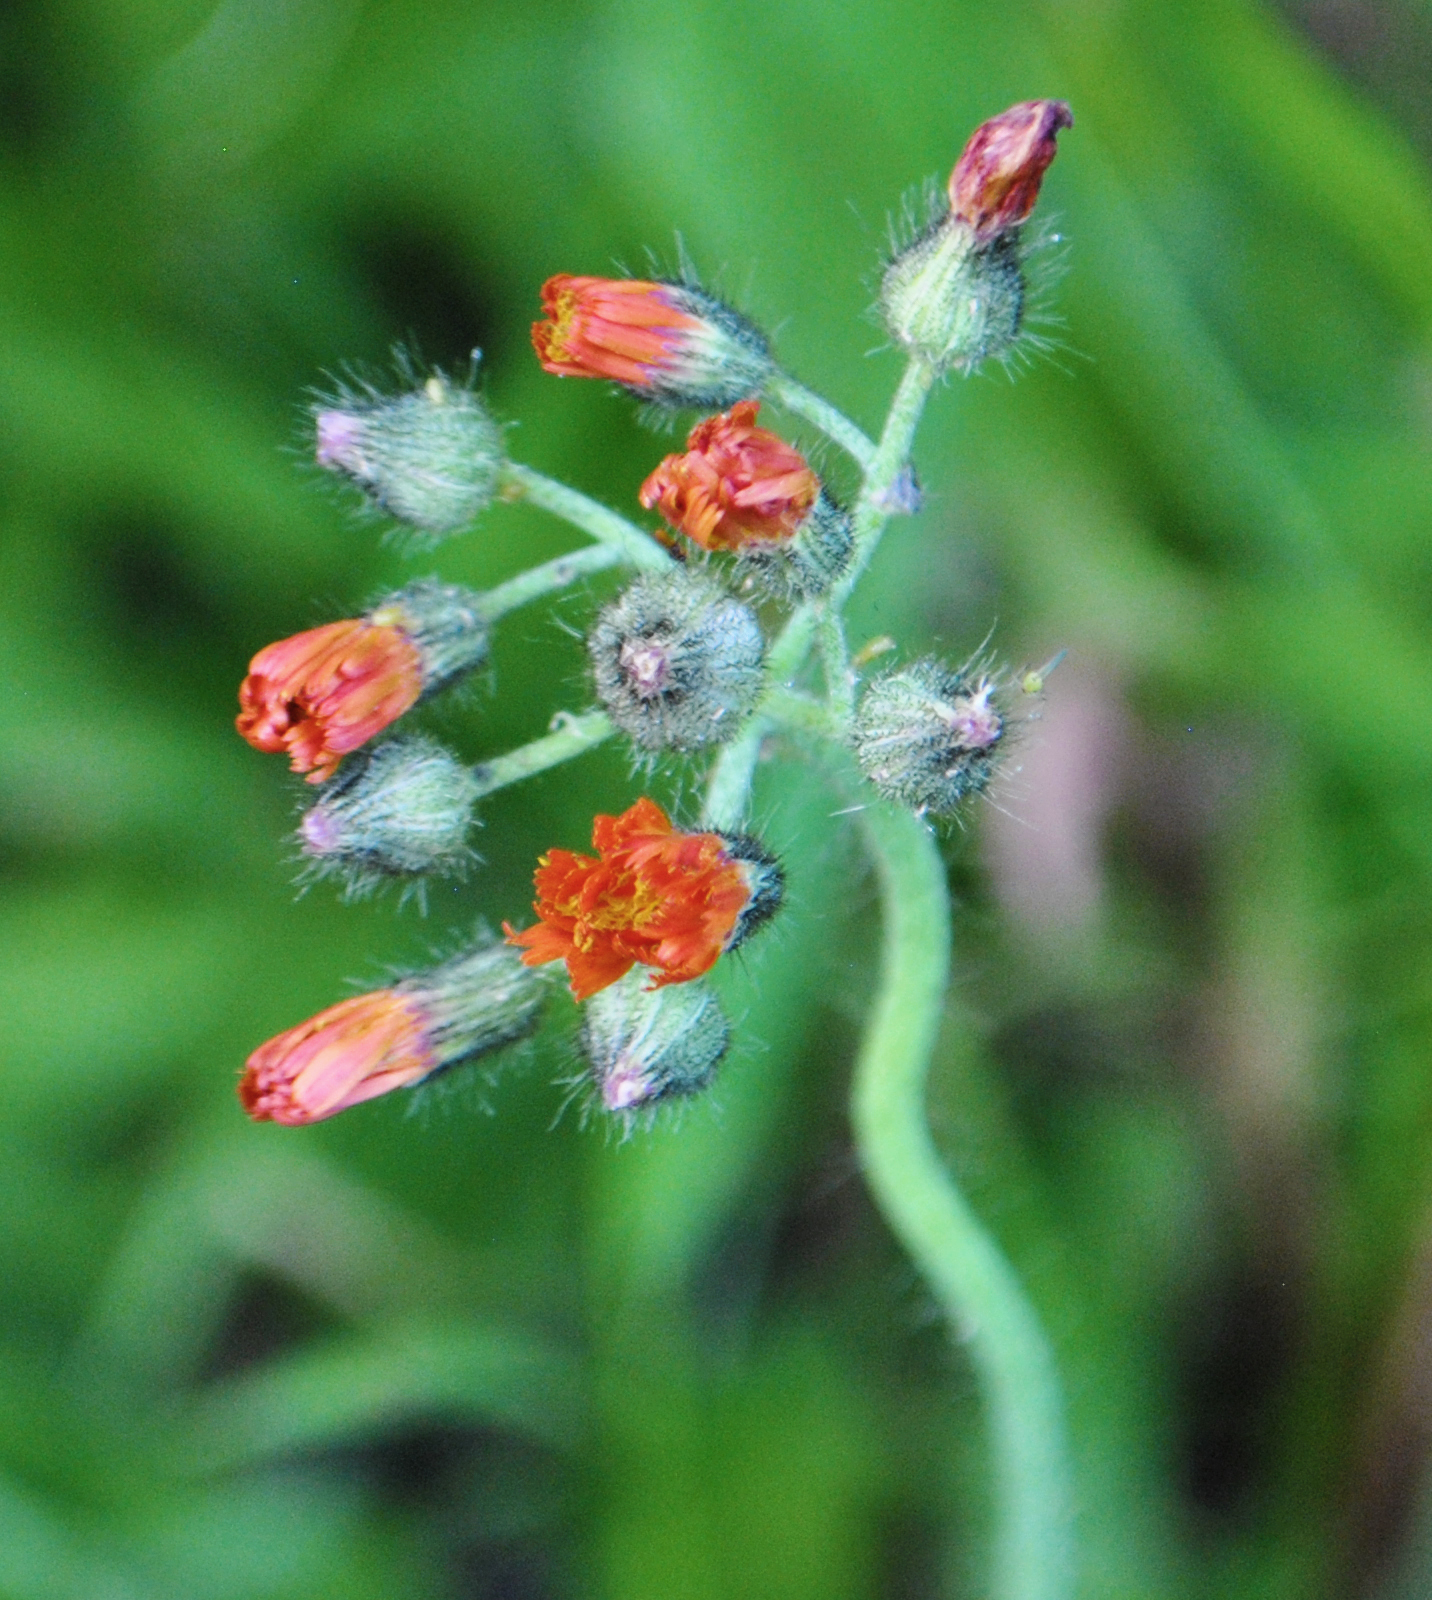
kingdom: Plantae
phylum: Tracheophyta
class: Magnoliopsida
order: Asterales
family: Asteraceae
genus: Pilosella
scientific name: Pilosella aurantiaca
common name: Fox-and-cubs
